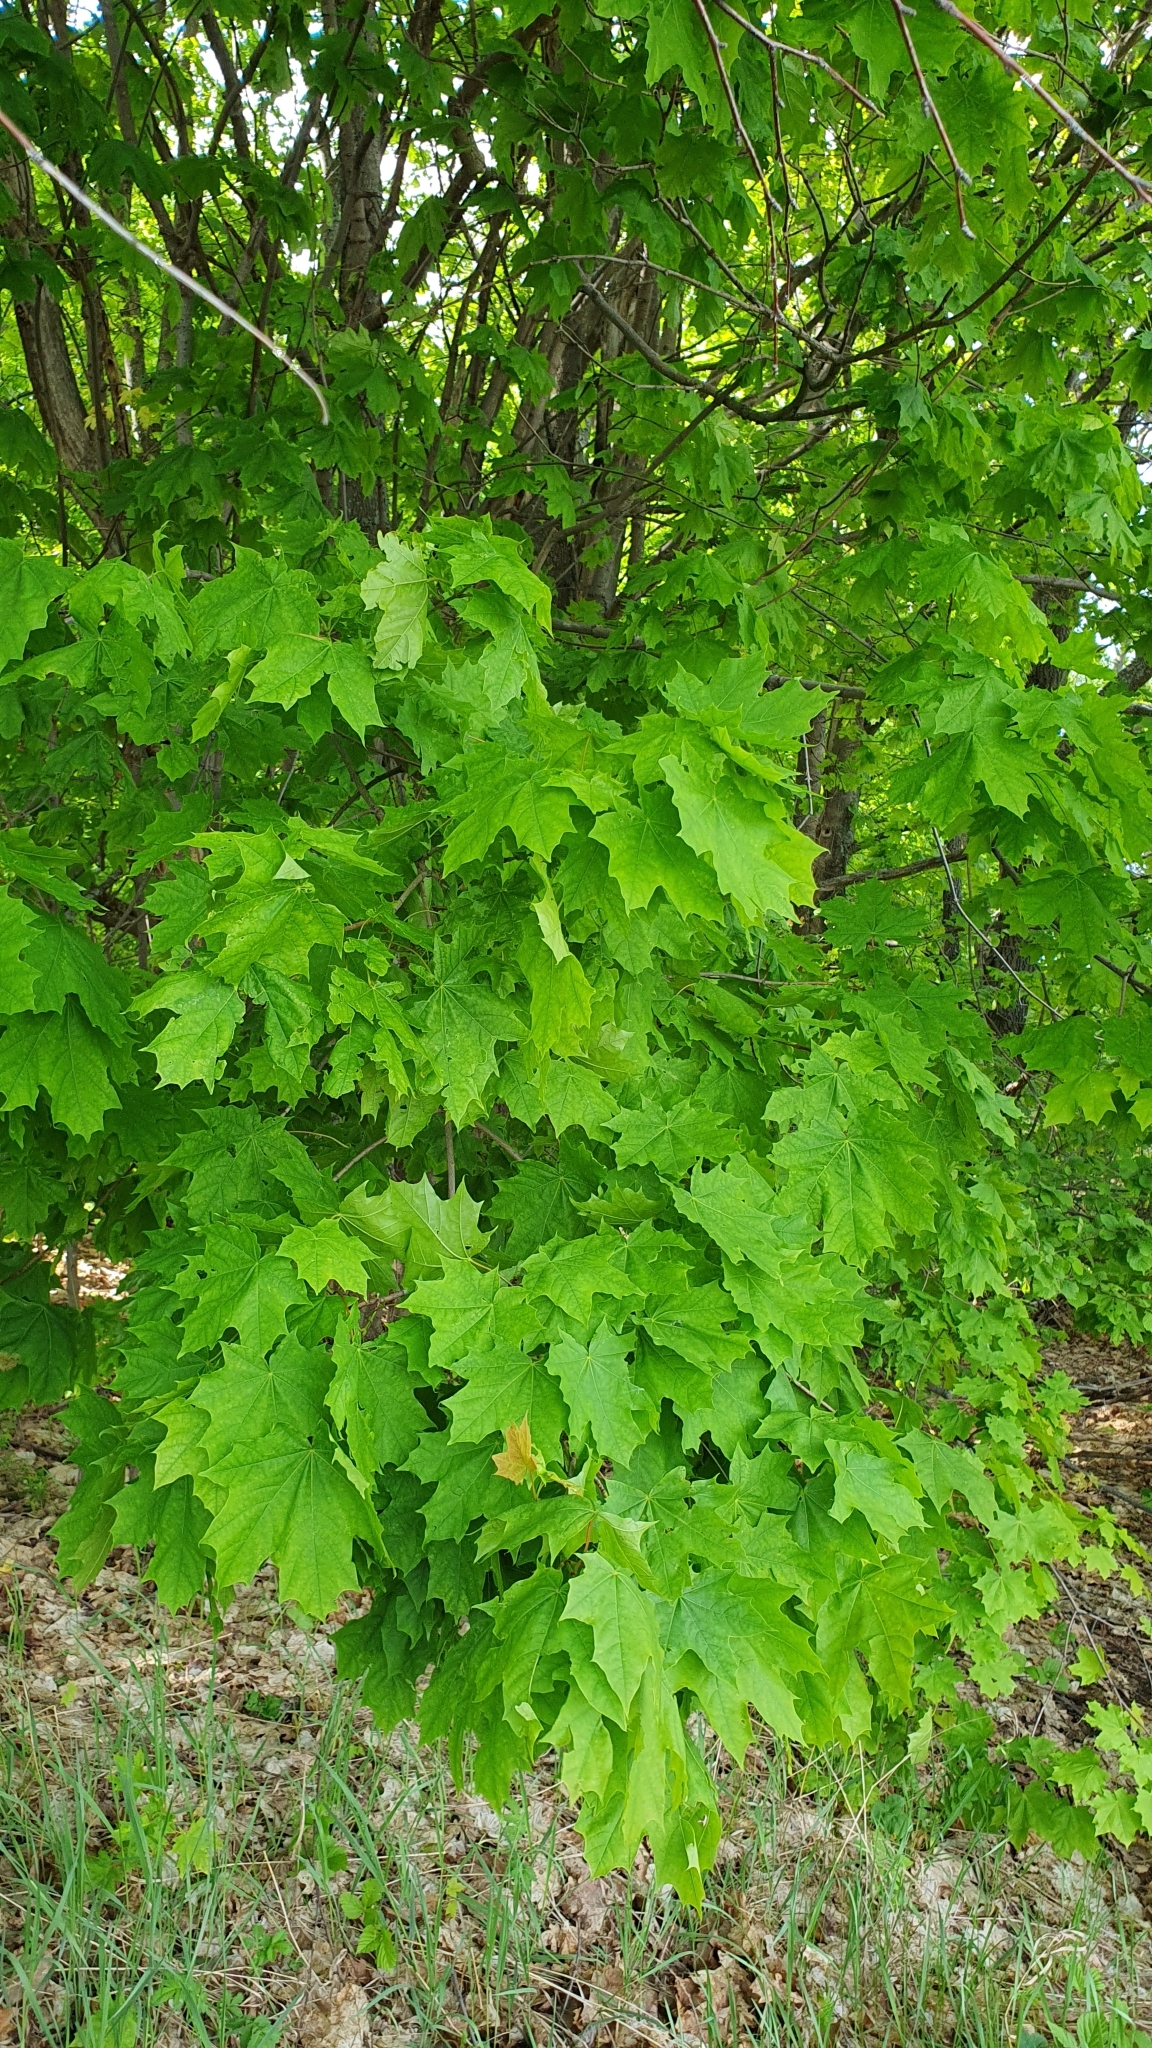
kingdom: Plantae
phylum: Tracheophyta
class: Magnoliopsida
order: Sapindales
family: Sapindaceae
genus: Acer
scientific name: Acer platanoides
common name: Norway maple
